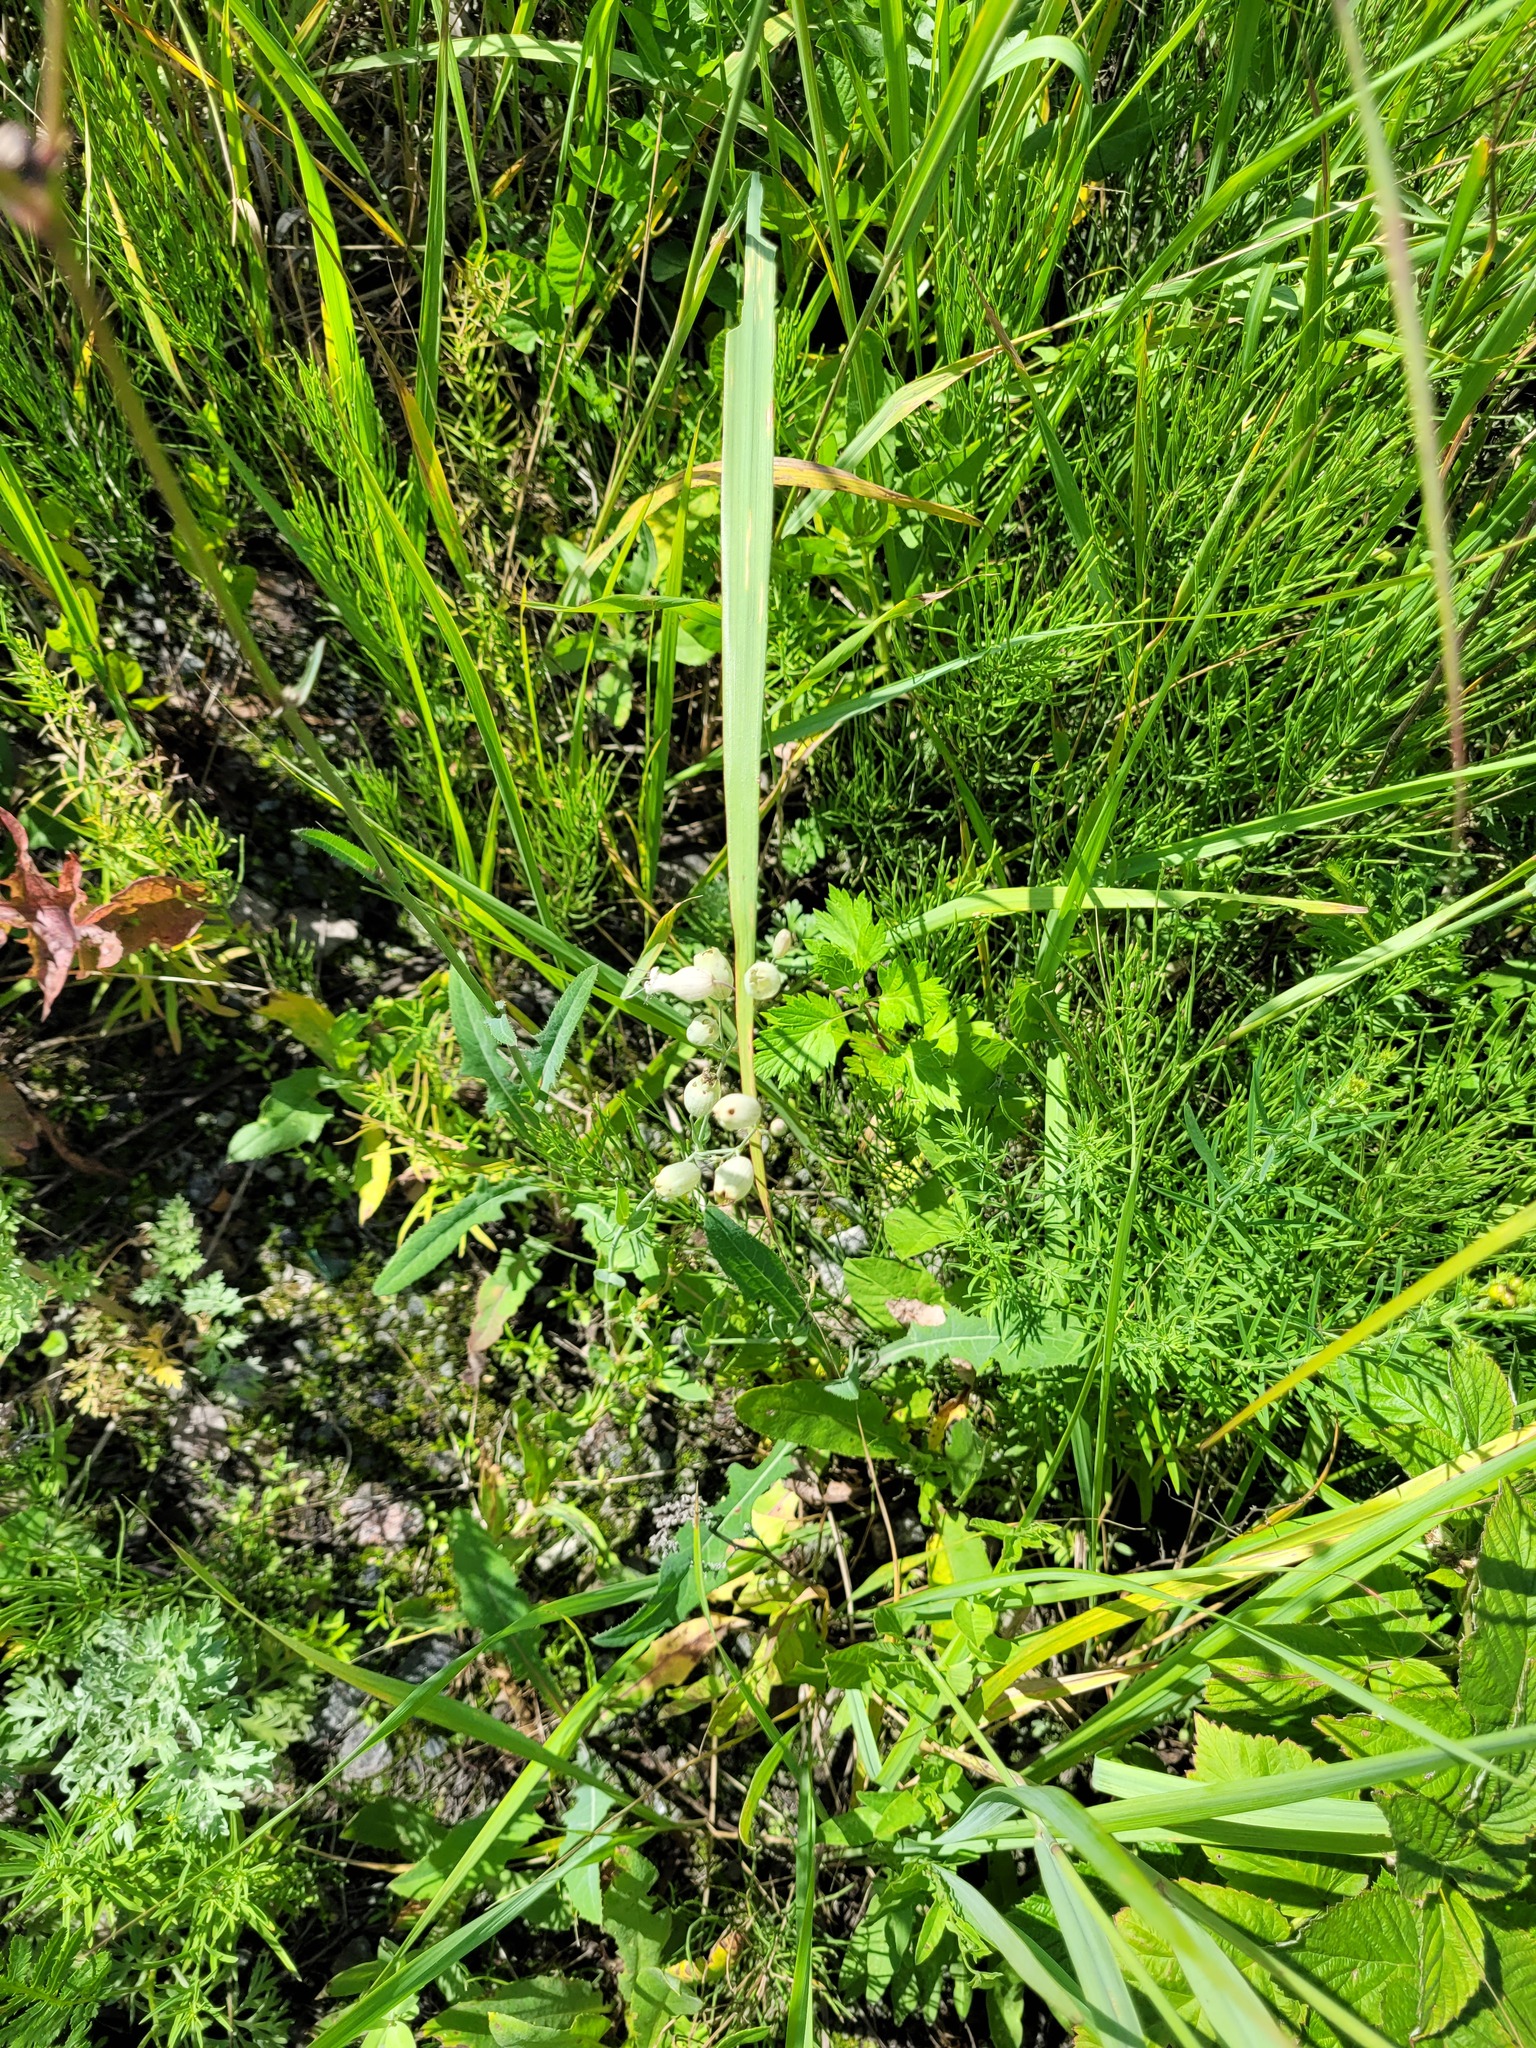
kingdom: Plantae
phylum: Tracheophyta
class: Magnoliopsida
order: Caryophyllales
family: Caryophyllaceae
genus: Silene
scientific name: Silene vulgaris
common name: Bladder campion
